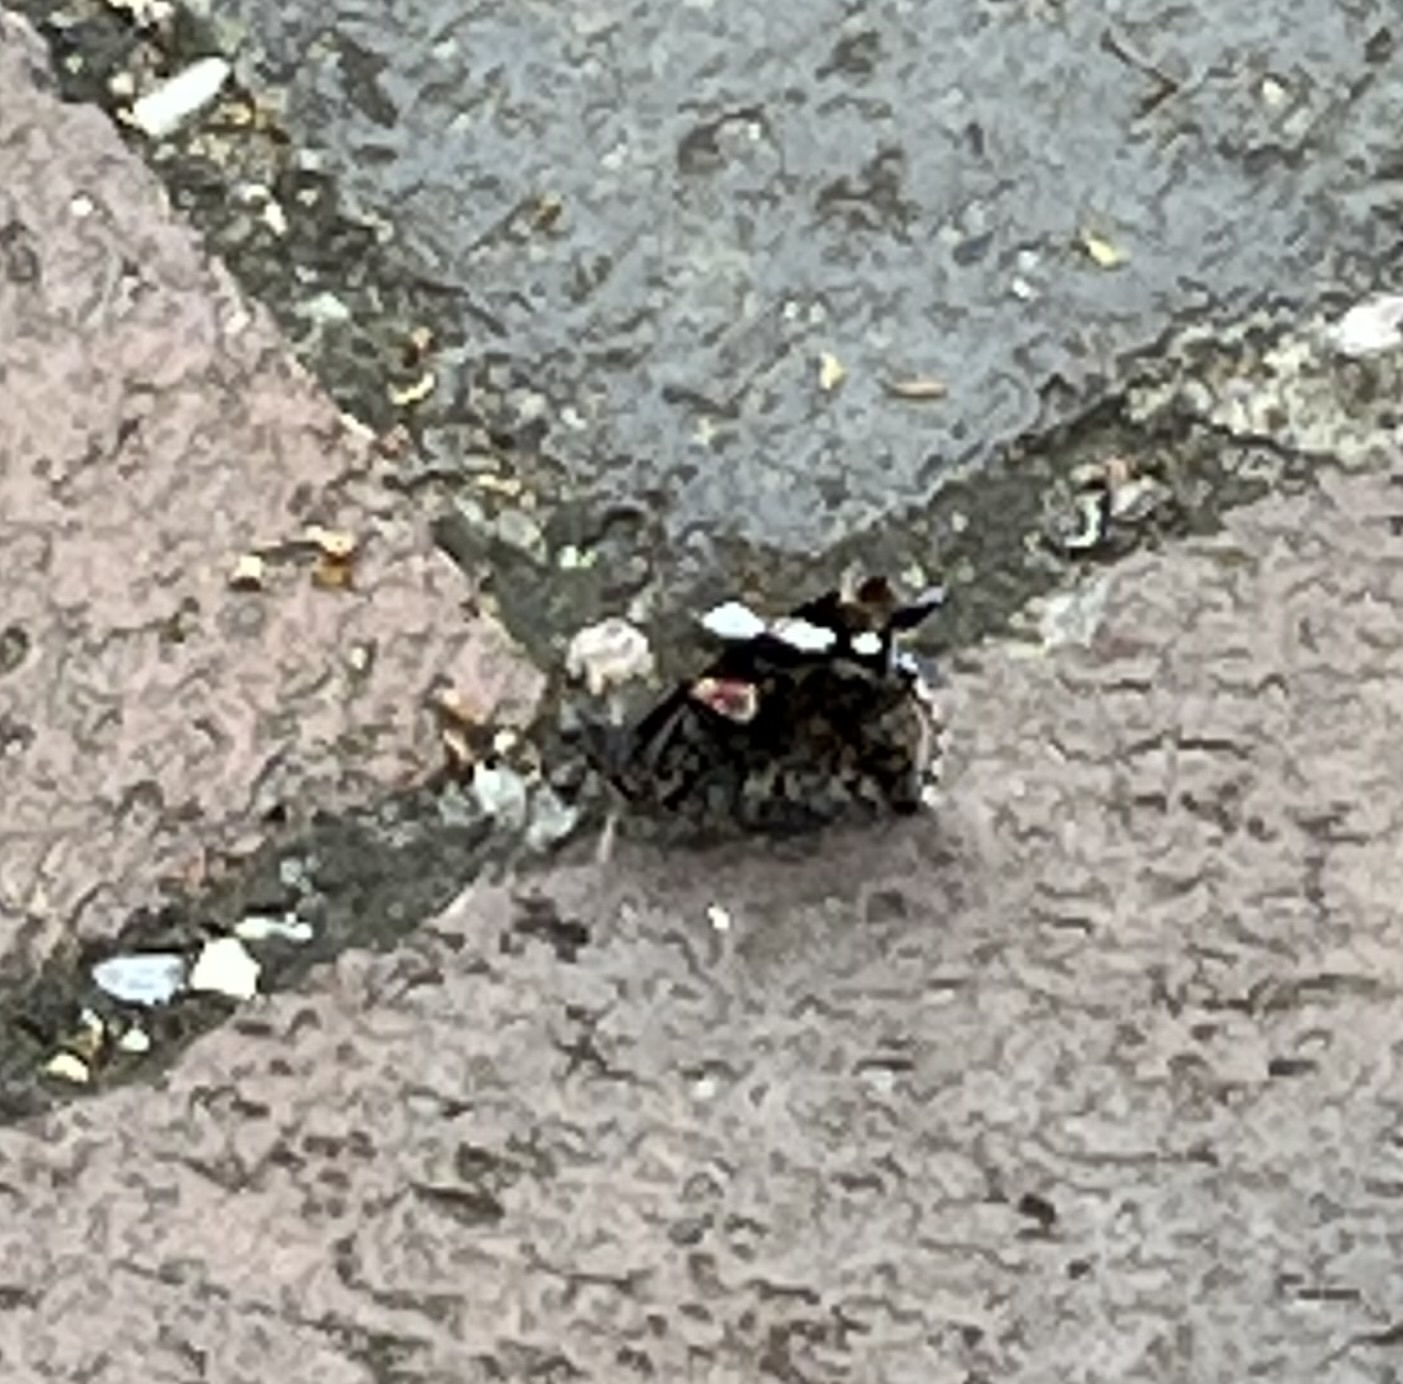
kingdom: Animalia
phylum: Arthropoda
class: Insecta
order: Lepidoptera
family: Nymphalidae
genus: Vanessa
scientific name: Vanessa atalanta
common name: Red admiral
